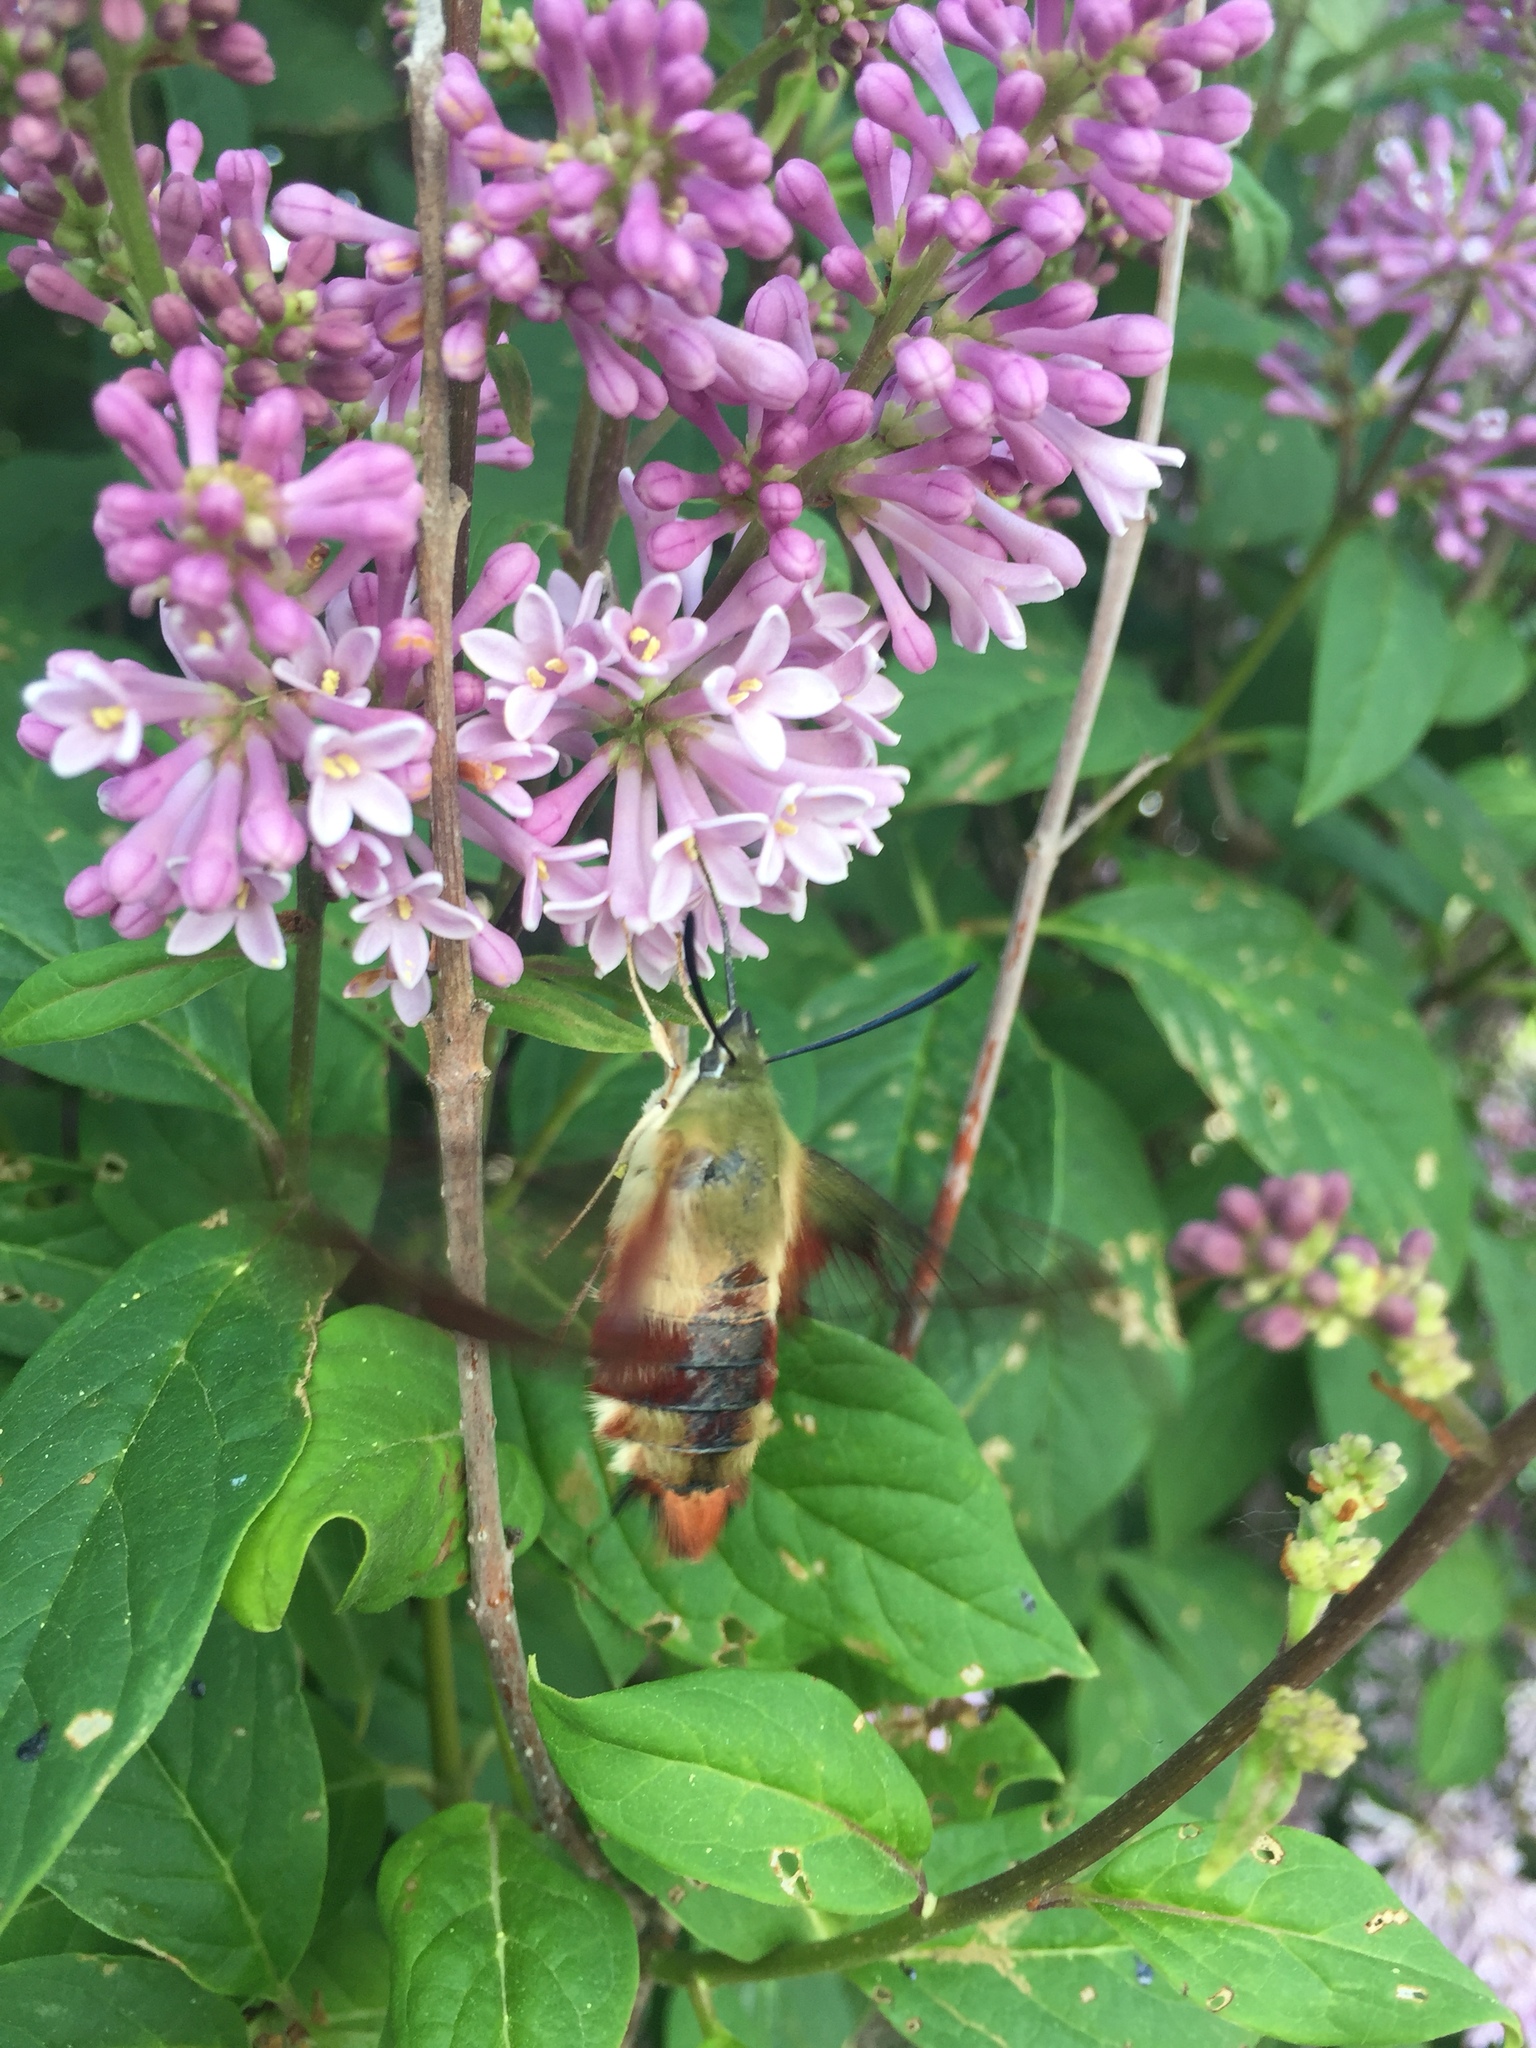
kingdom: Animalia
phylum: Arthropoda
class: Insecta
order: Lepidoptera
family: Sphingidae
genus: Hemaris
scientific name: Hemaris thysbe
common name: Common clear-wing
